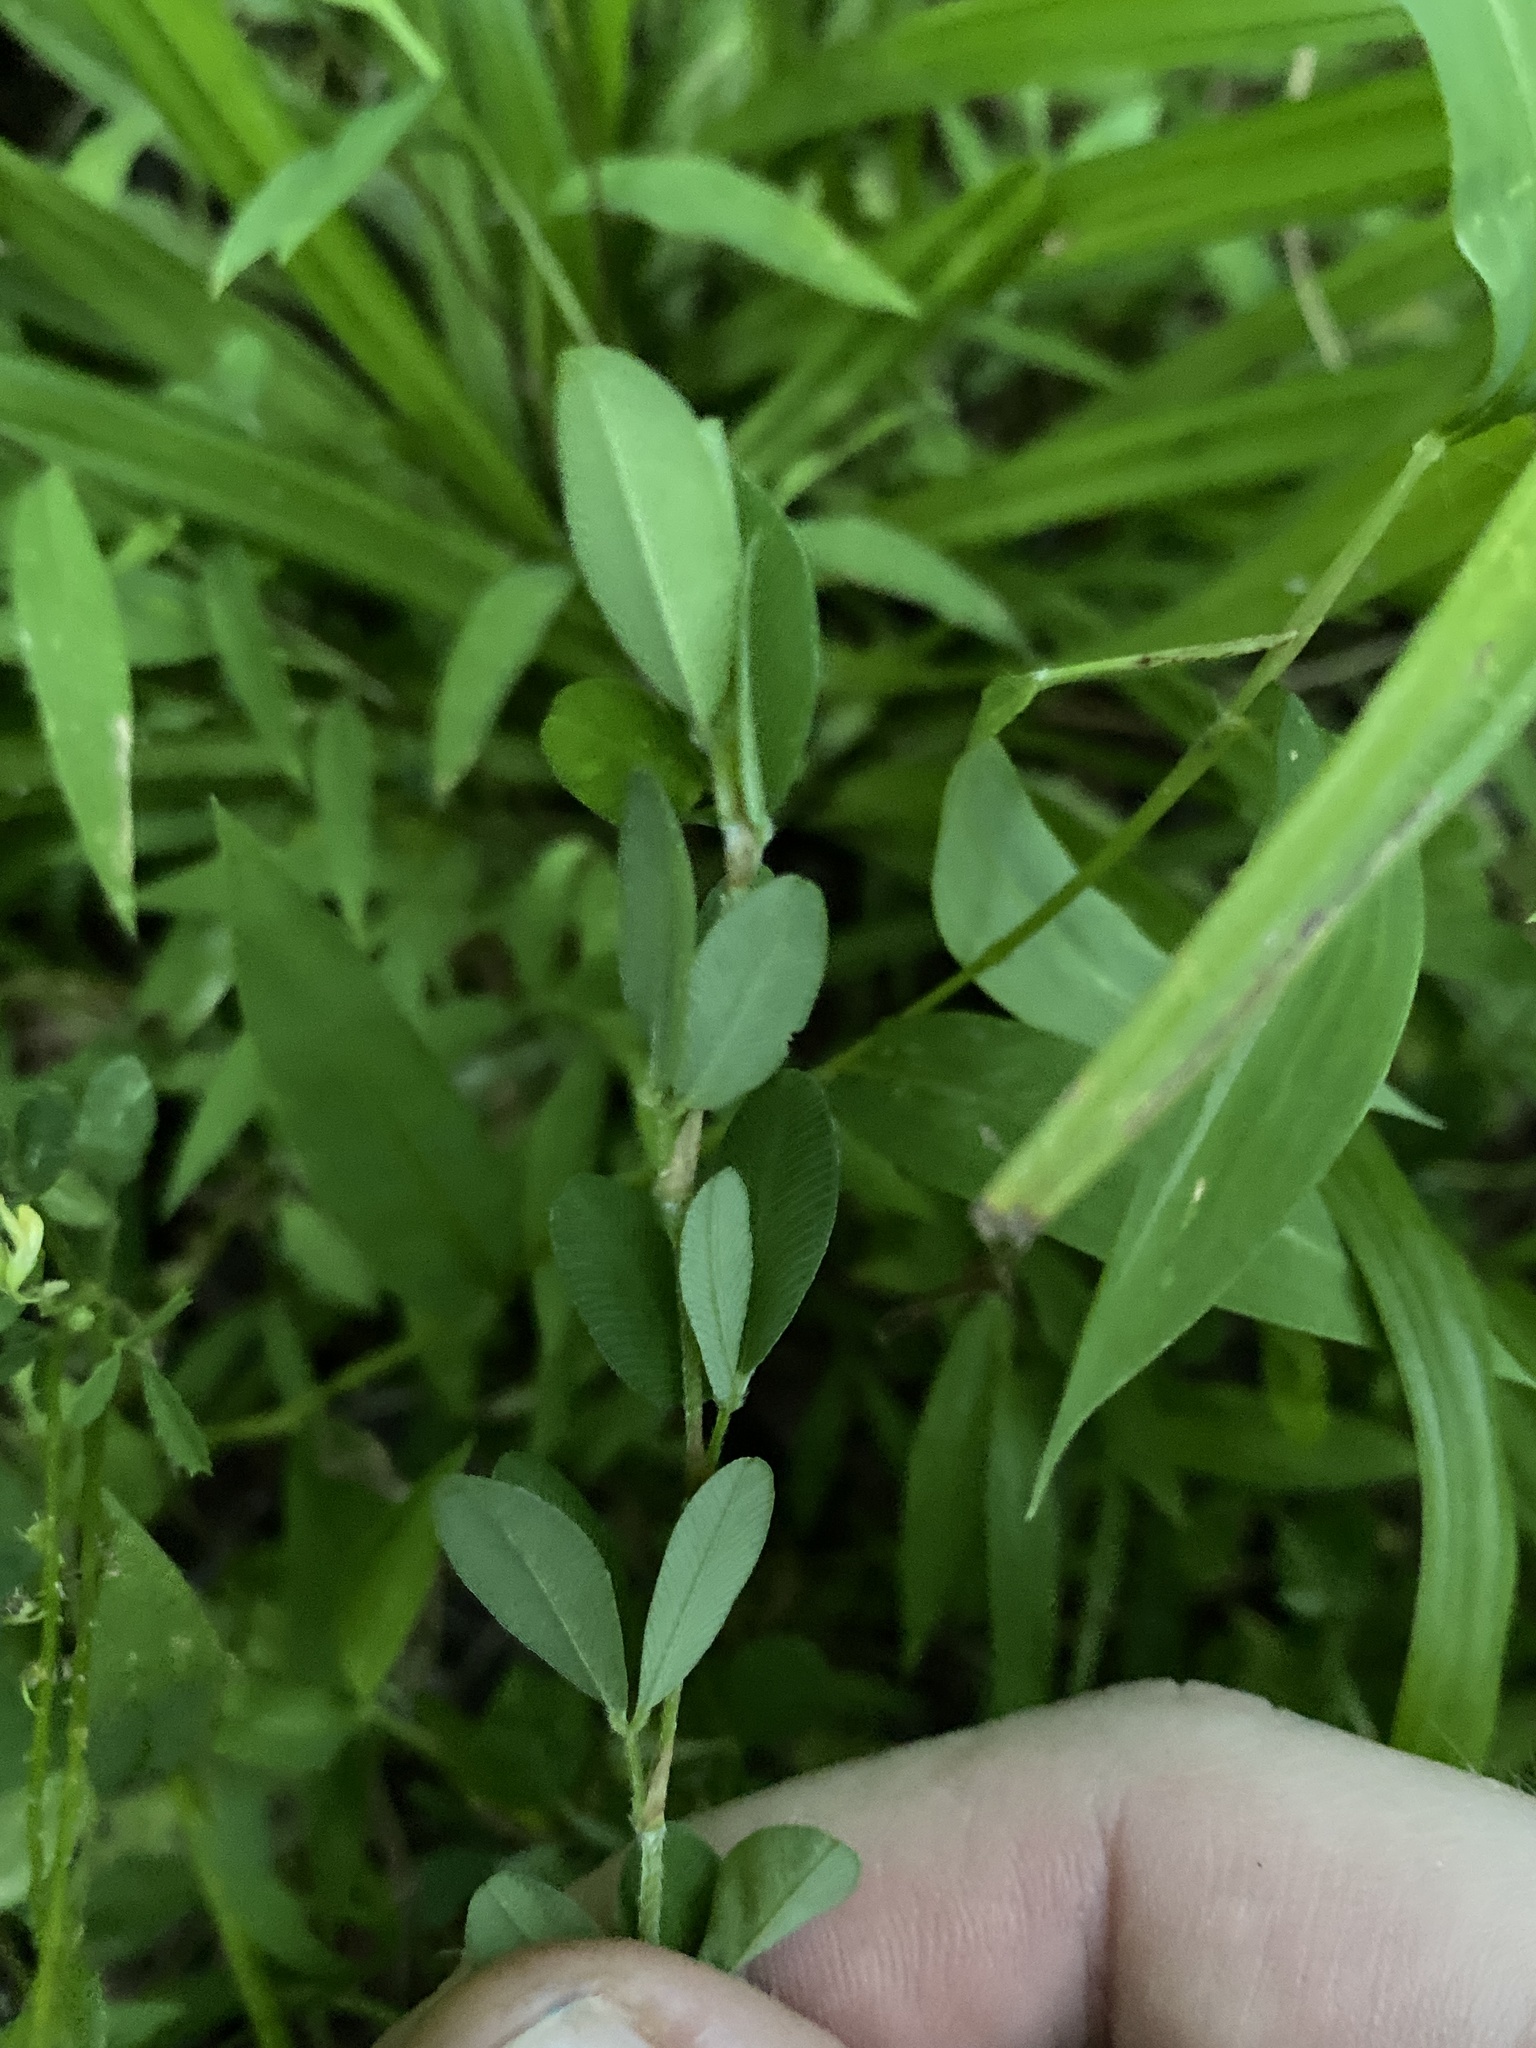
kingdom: Plantae
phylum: Tracheophyta
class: Magnoliopsida
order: Fabales
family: Fabaceae
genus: Melilotus
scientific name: Melilotus officinalis
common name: Sweetclover
